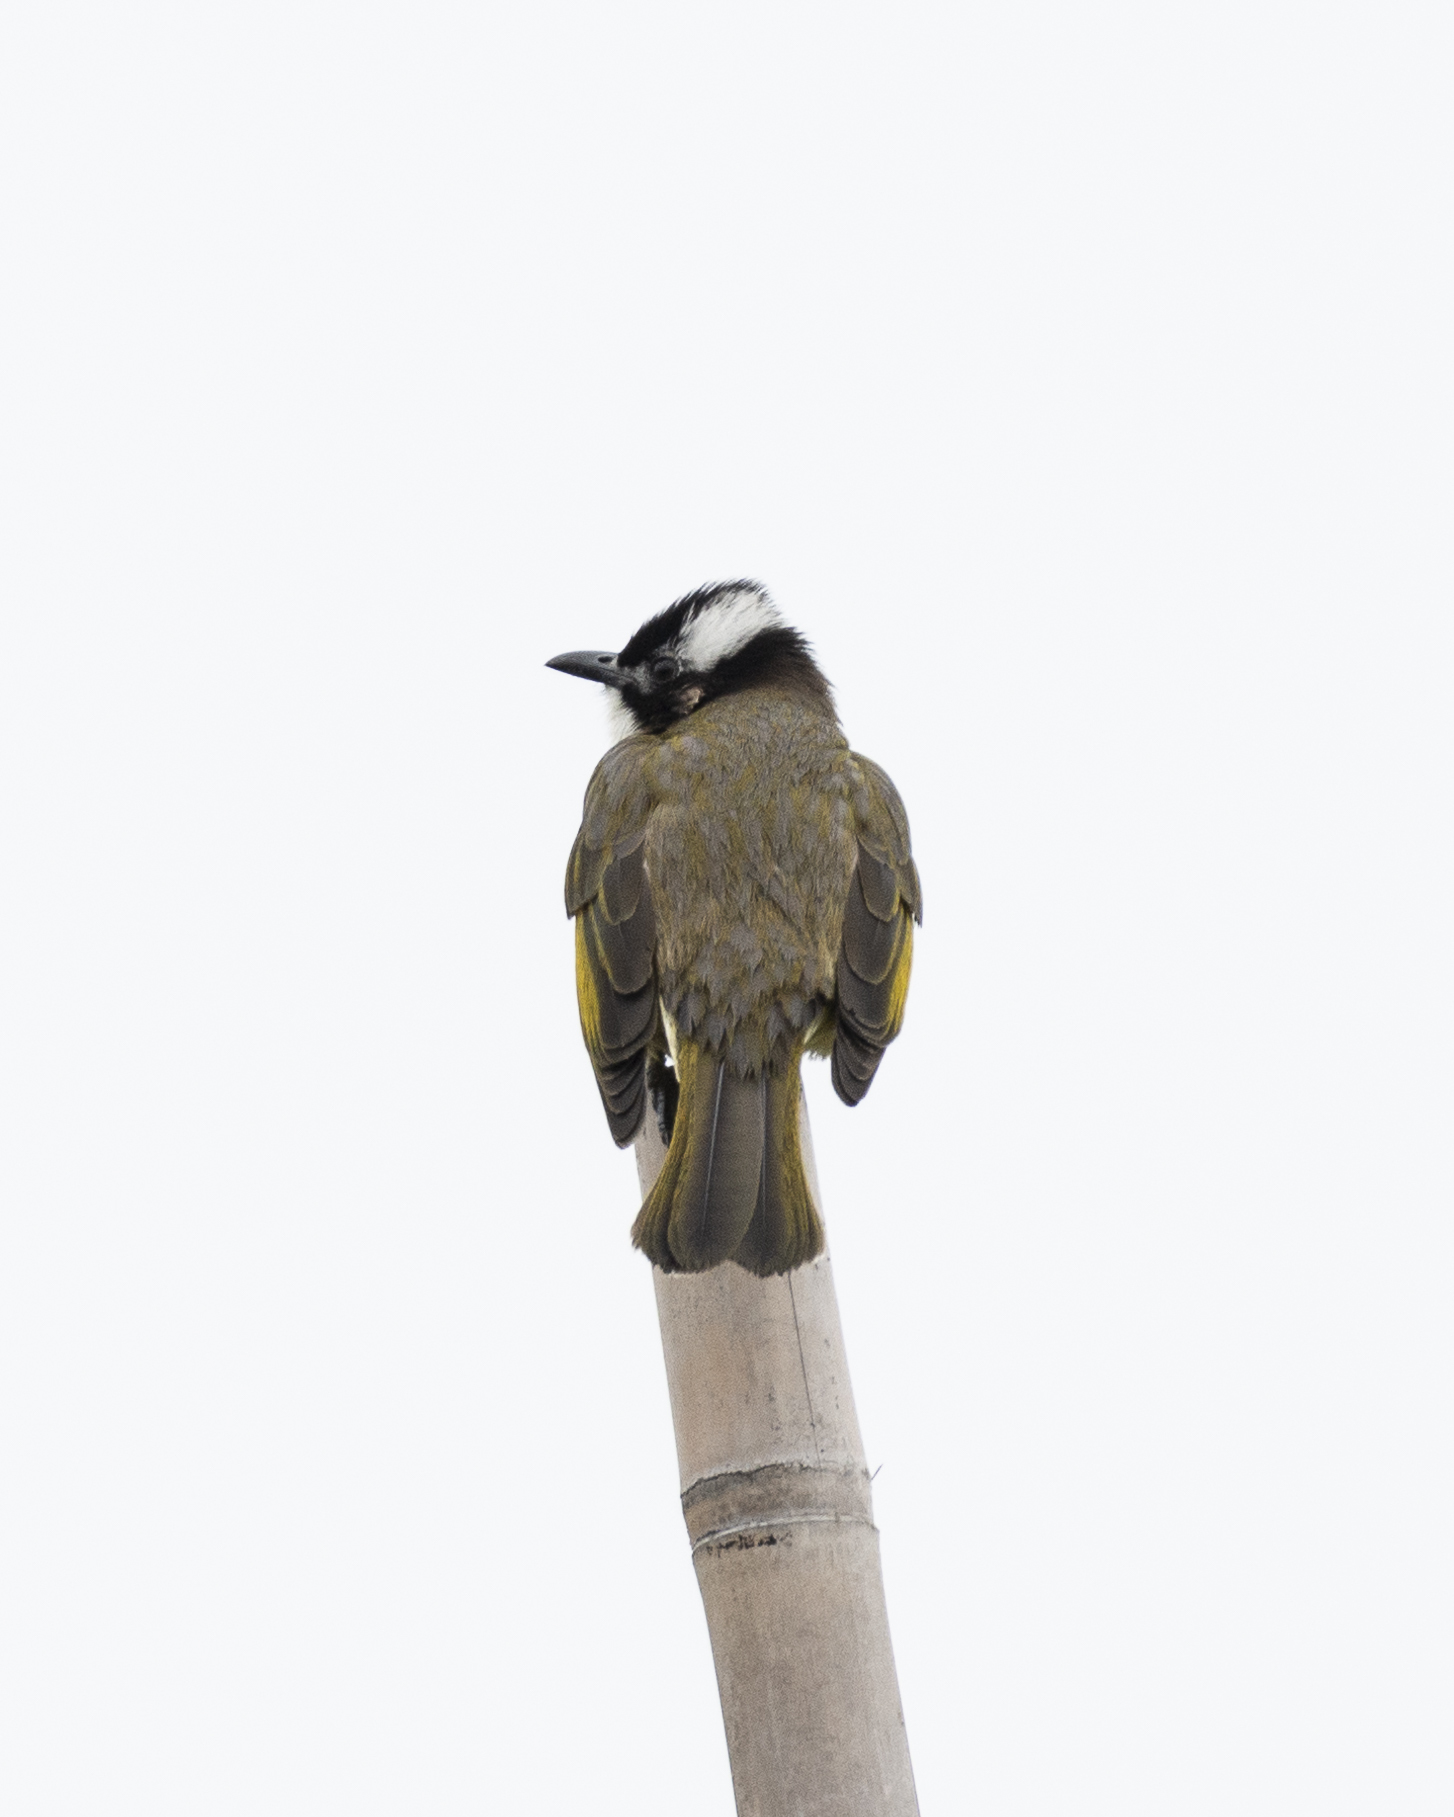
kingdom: Animalia
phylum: Chordata
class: Aves
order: Passeriformes
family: Pycnonotidae
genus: Pycnonotus
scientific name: Pycnonotus sinensis
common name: Light-vented bulbul
